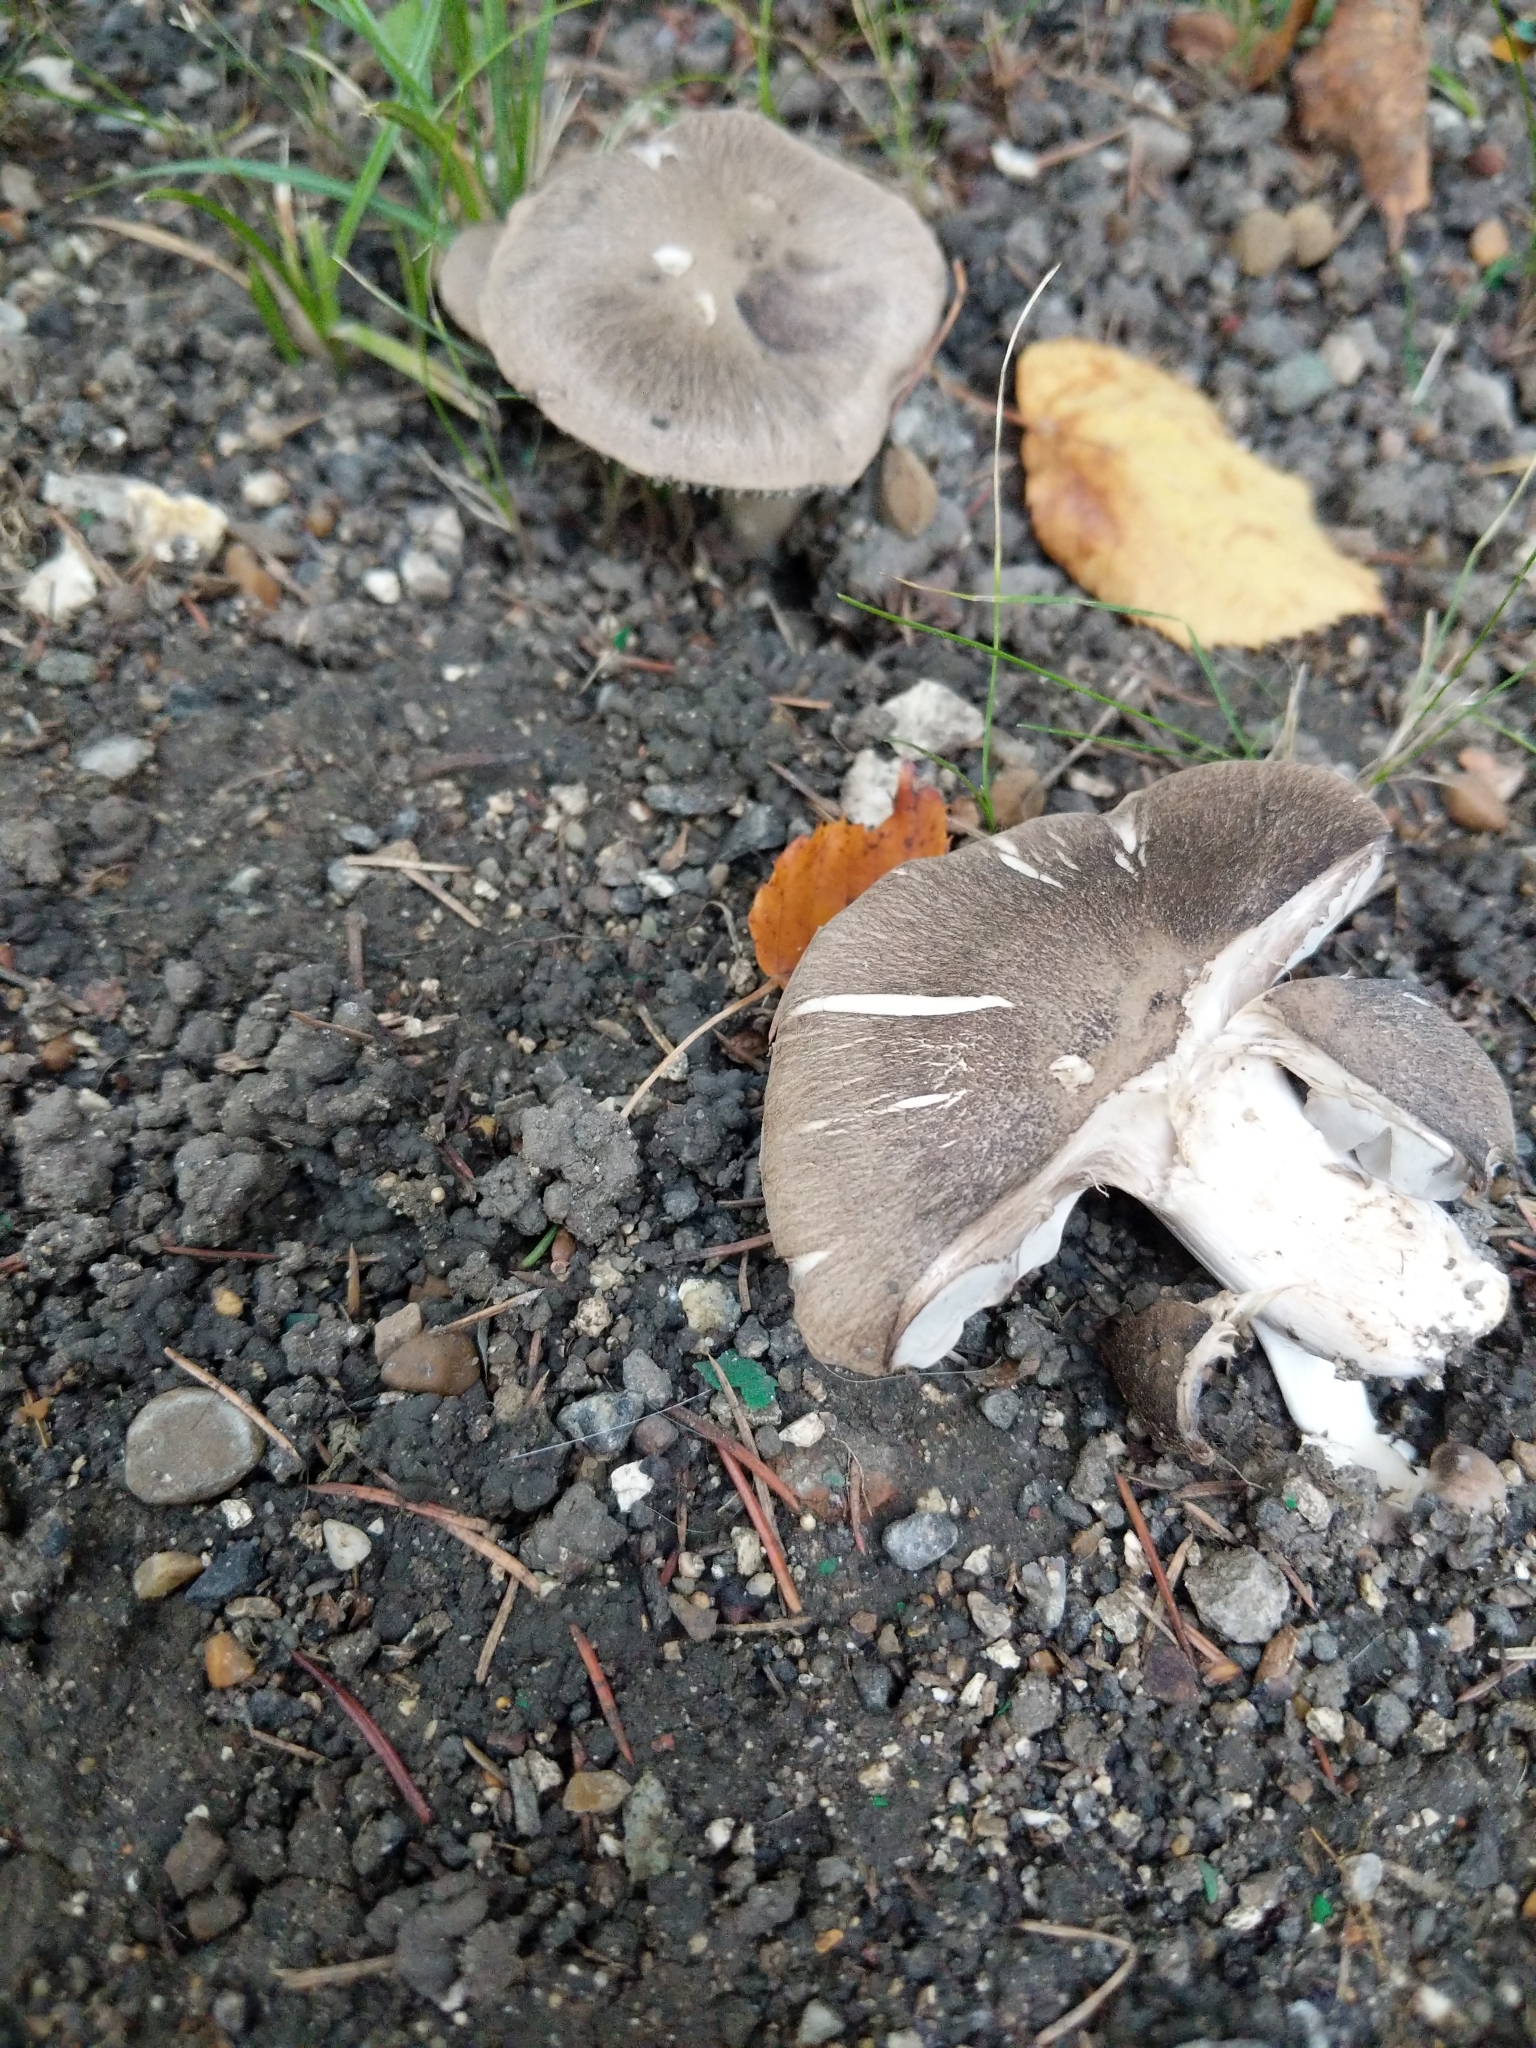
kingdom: Fungi
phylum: Basidiomycota
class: Agaricomycetes
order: Agaricales
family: Tricholomataceae
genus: Tricholoma
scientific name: Tricholoma terreum
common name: Grey knight
